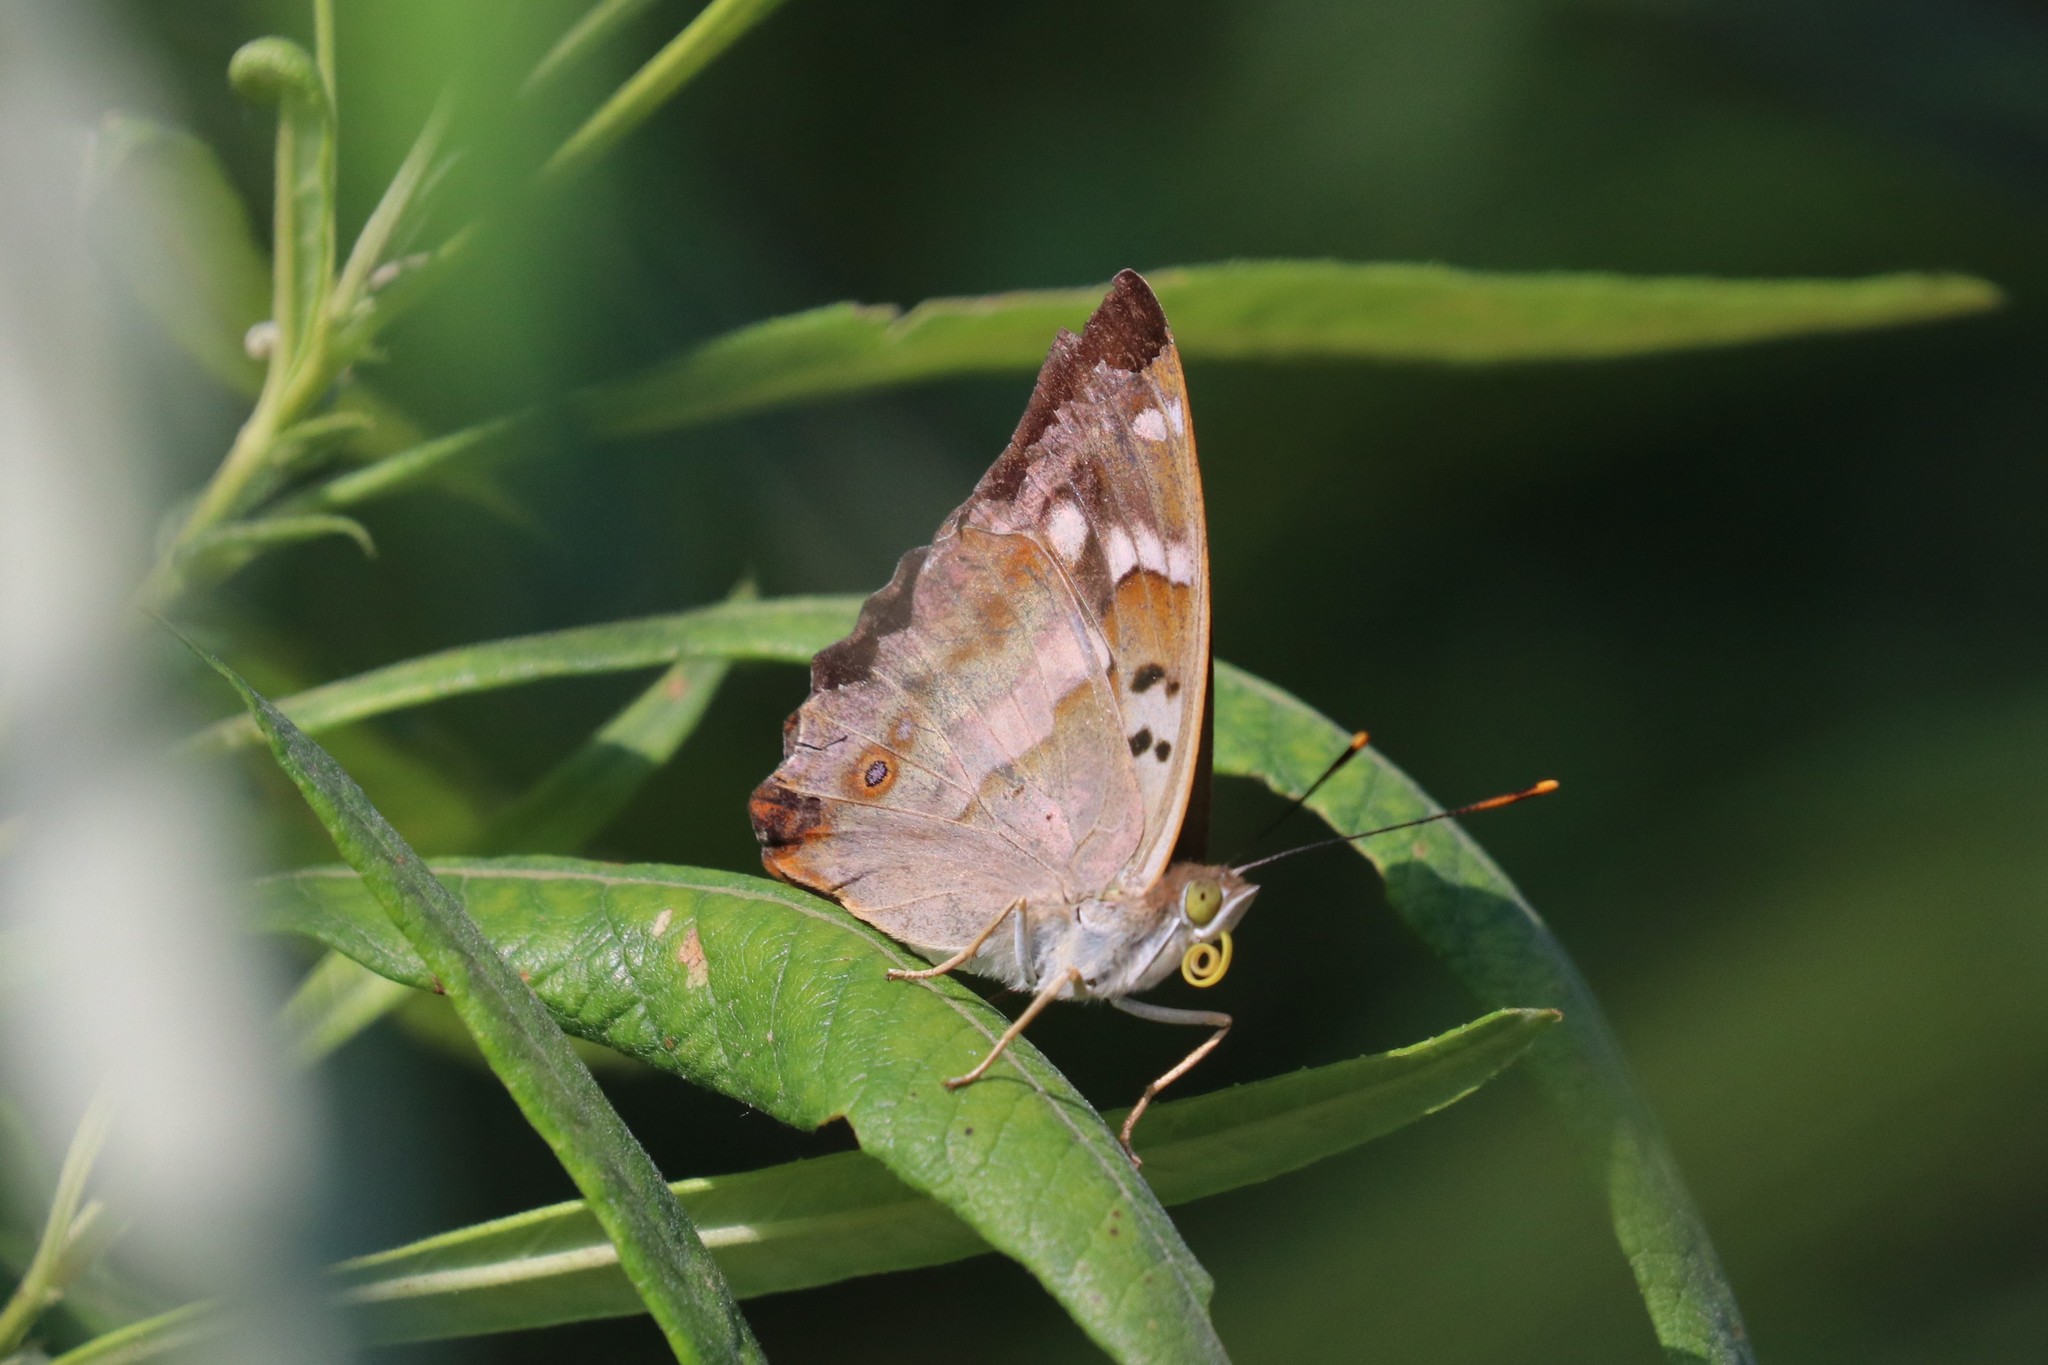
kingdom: Animalia
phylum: Arthropoda
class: Insecta
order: Lepidoptera
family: Nymphalidae
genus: Apatura
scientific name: Apatura ilia
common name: Lesser purple emperor
